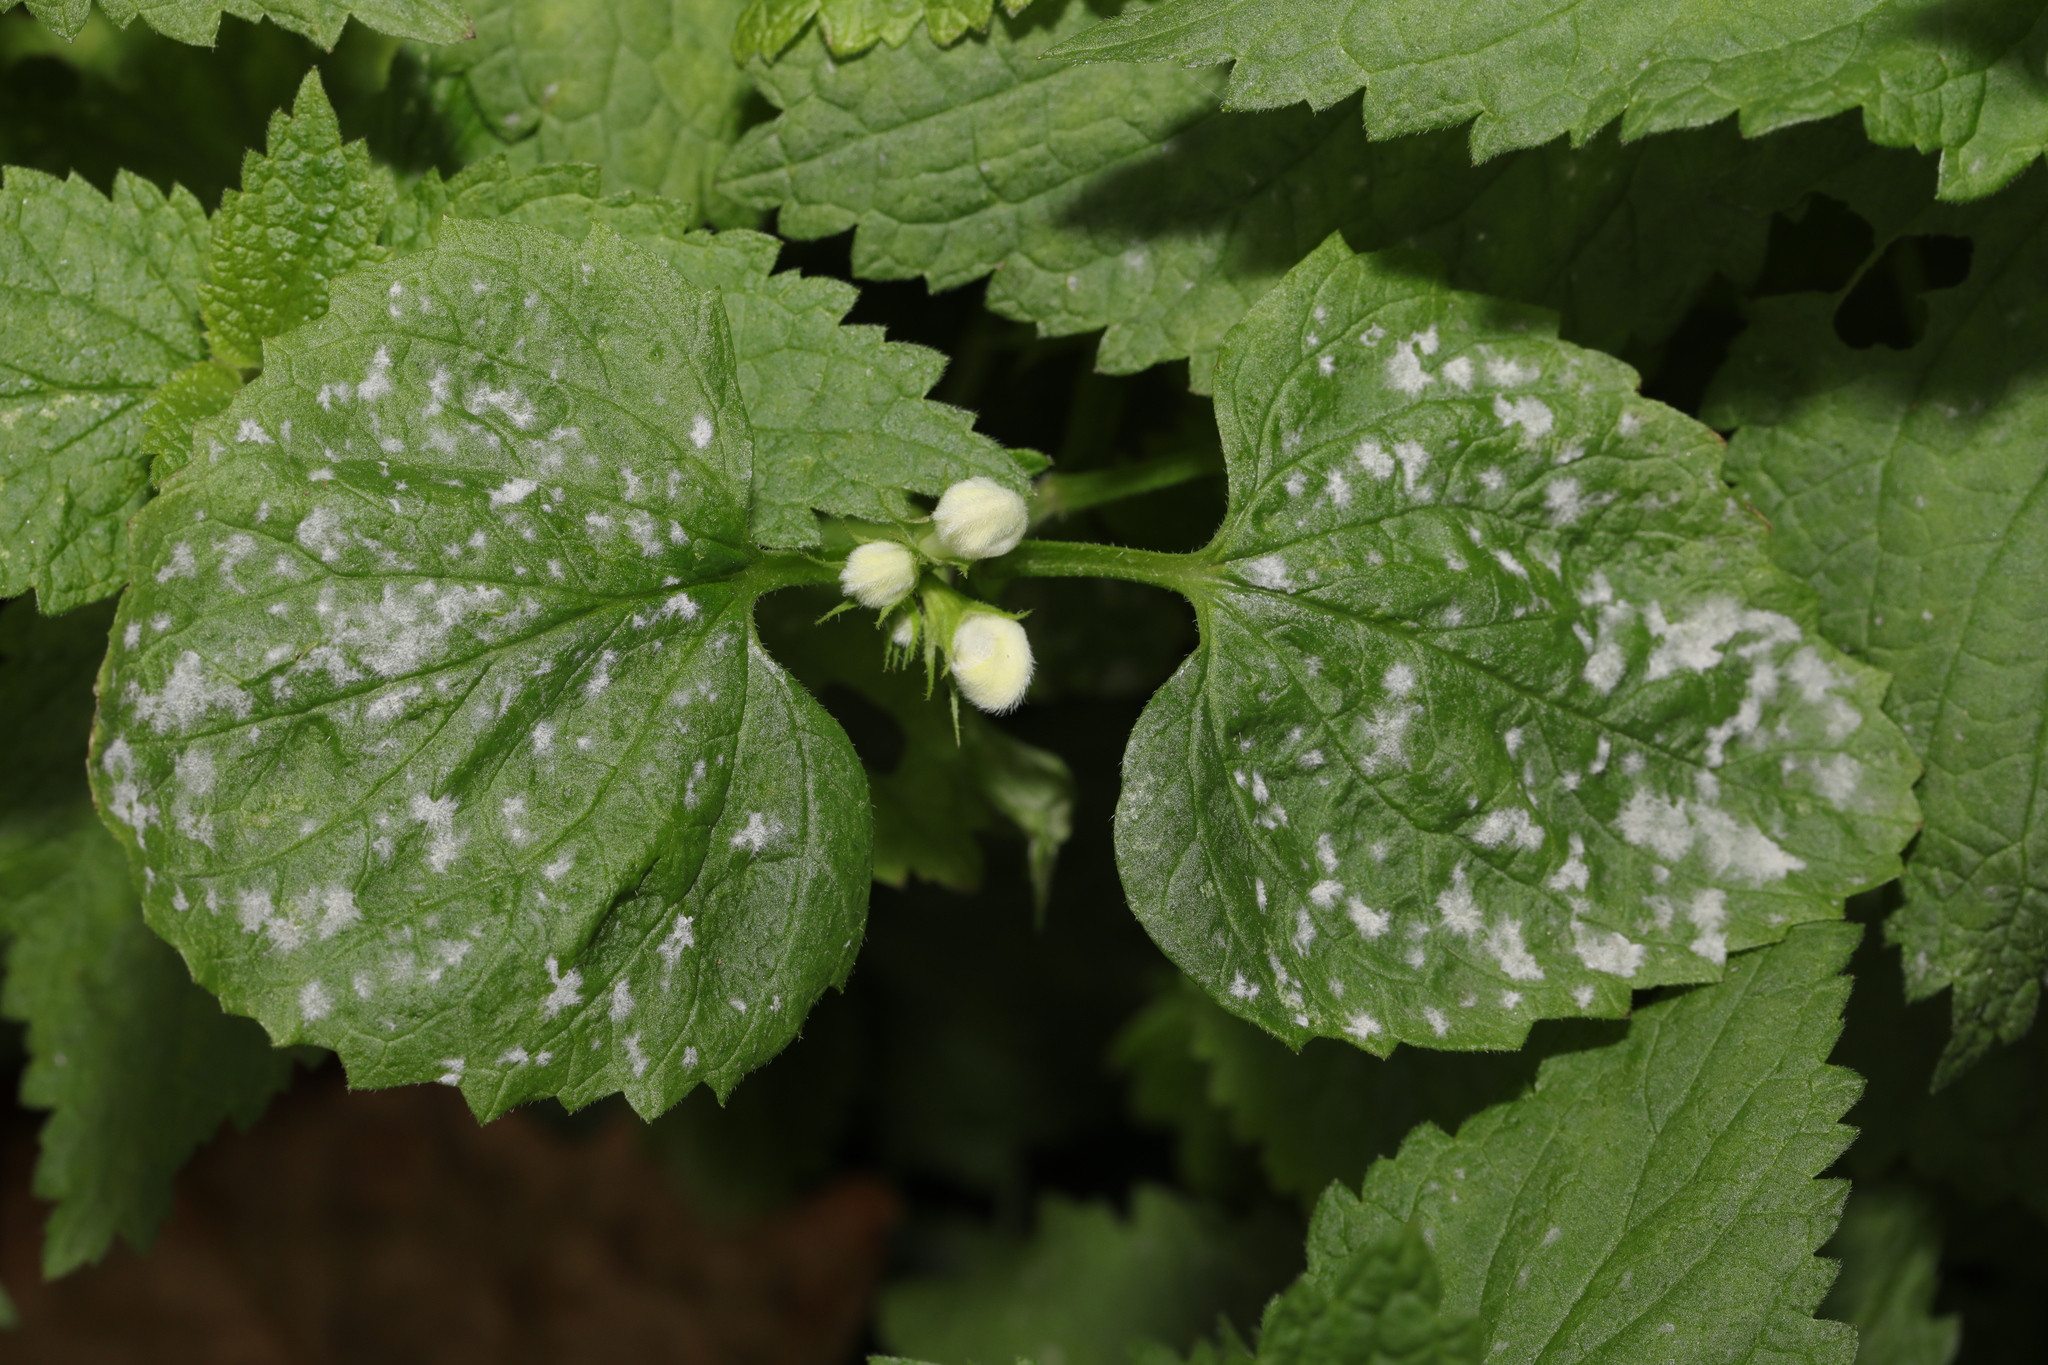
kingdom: Fungi
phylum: Ascomycota
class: Leotiomycetes
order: Helotiales
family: Erysiphaceae
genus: Neoerysiphe
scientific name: Neoerysiphe galeopsidis
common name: Mint mildew
